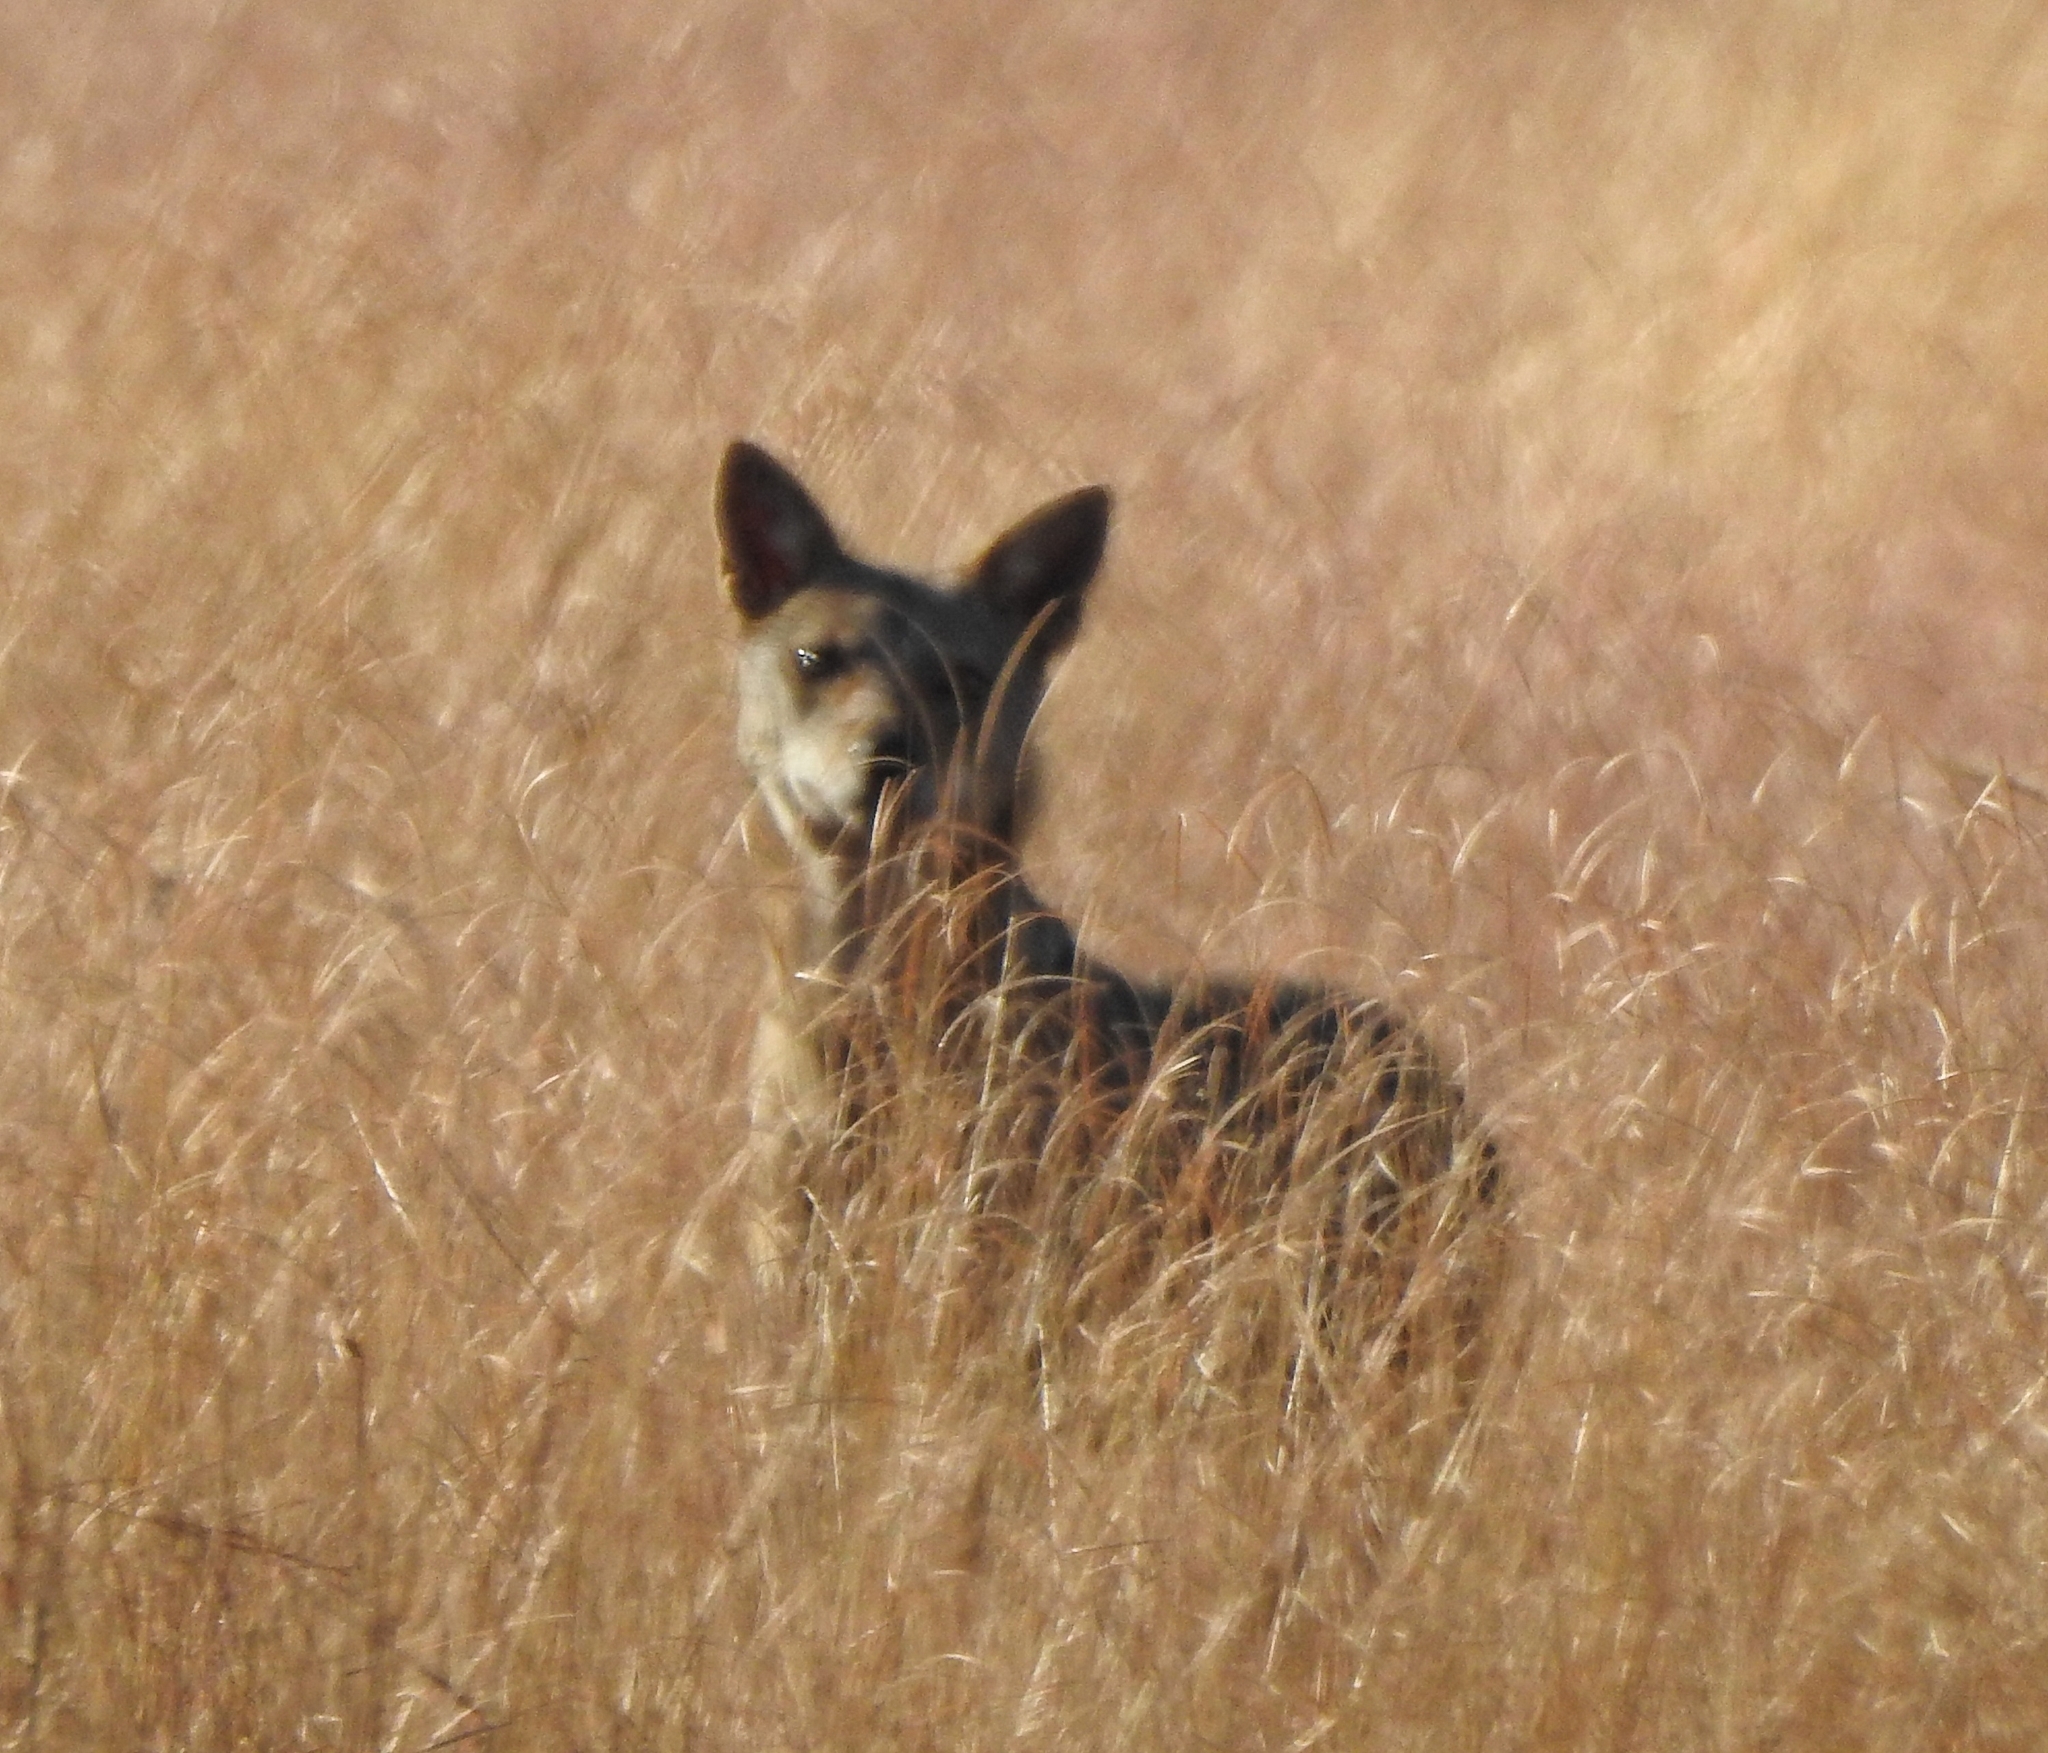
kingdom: Animalia
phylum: Chordata
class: Mammalia
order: Carnivora
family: Canidae
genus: Canis
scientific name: Canis aureus
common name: Golden jackal
